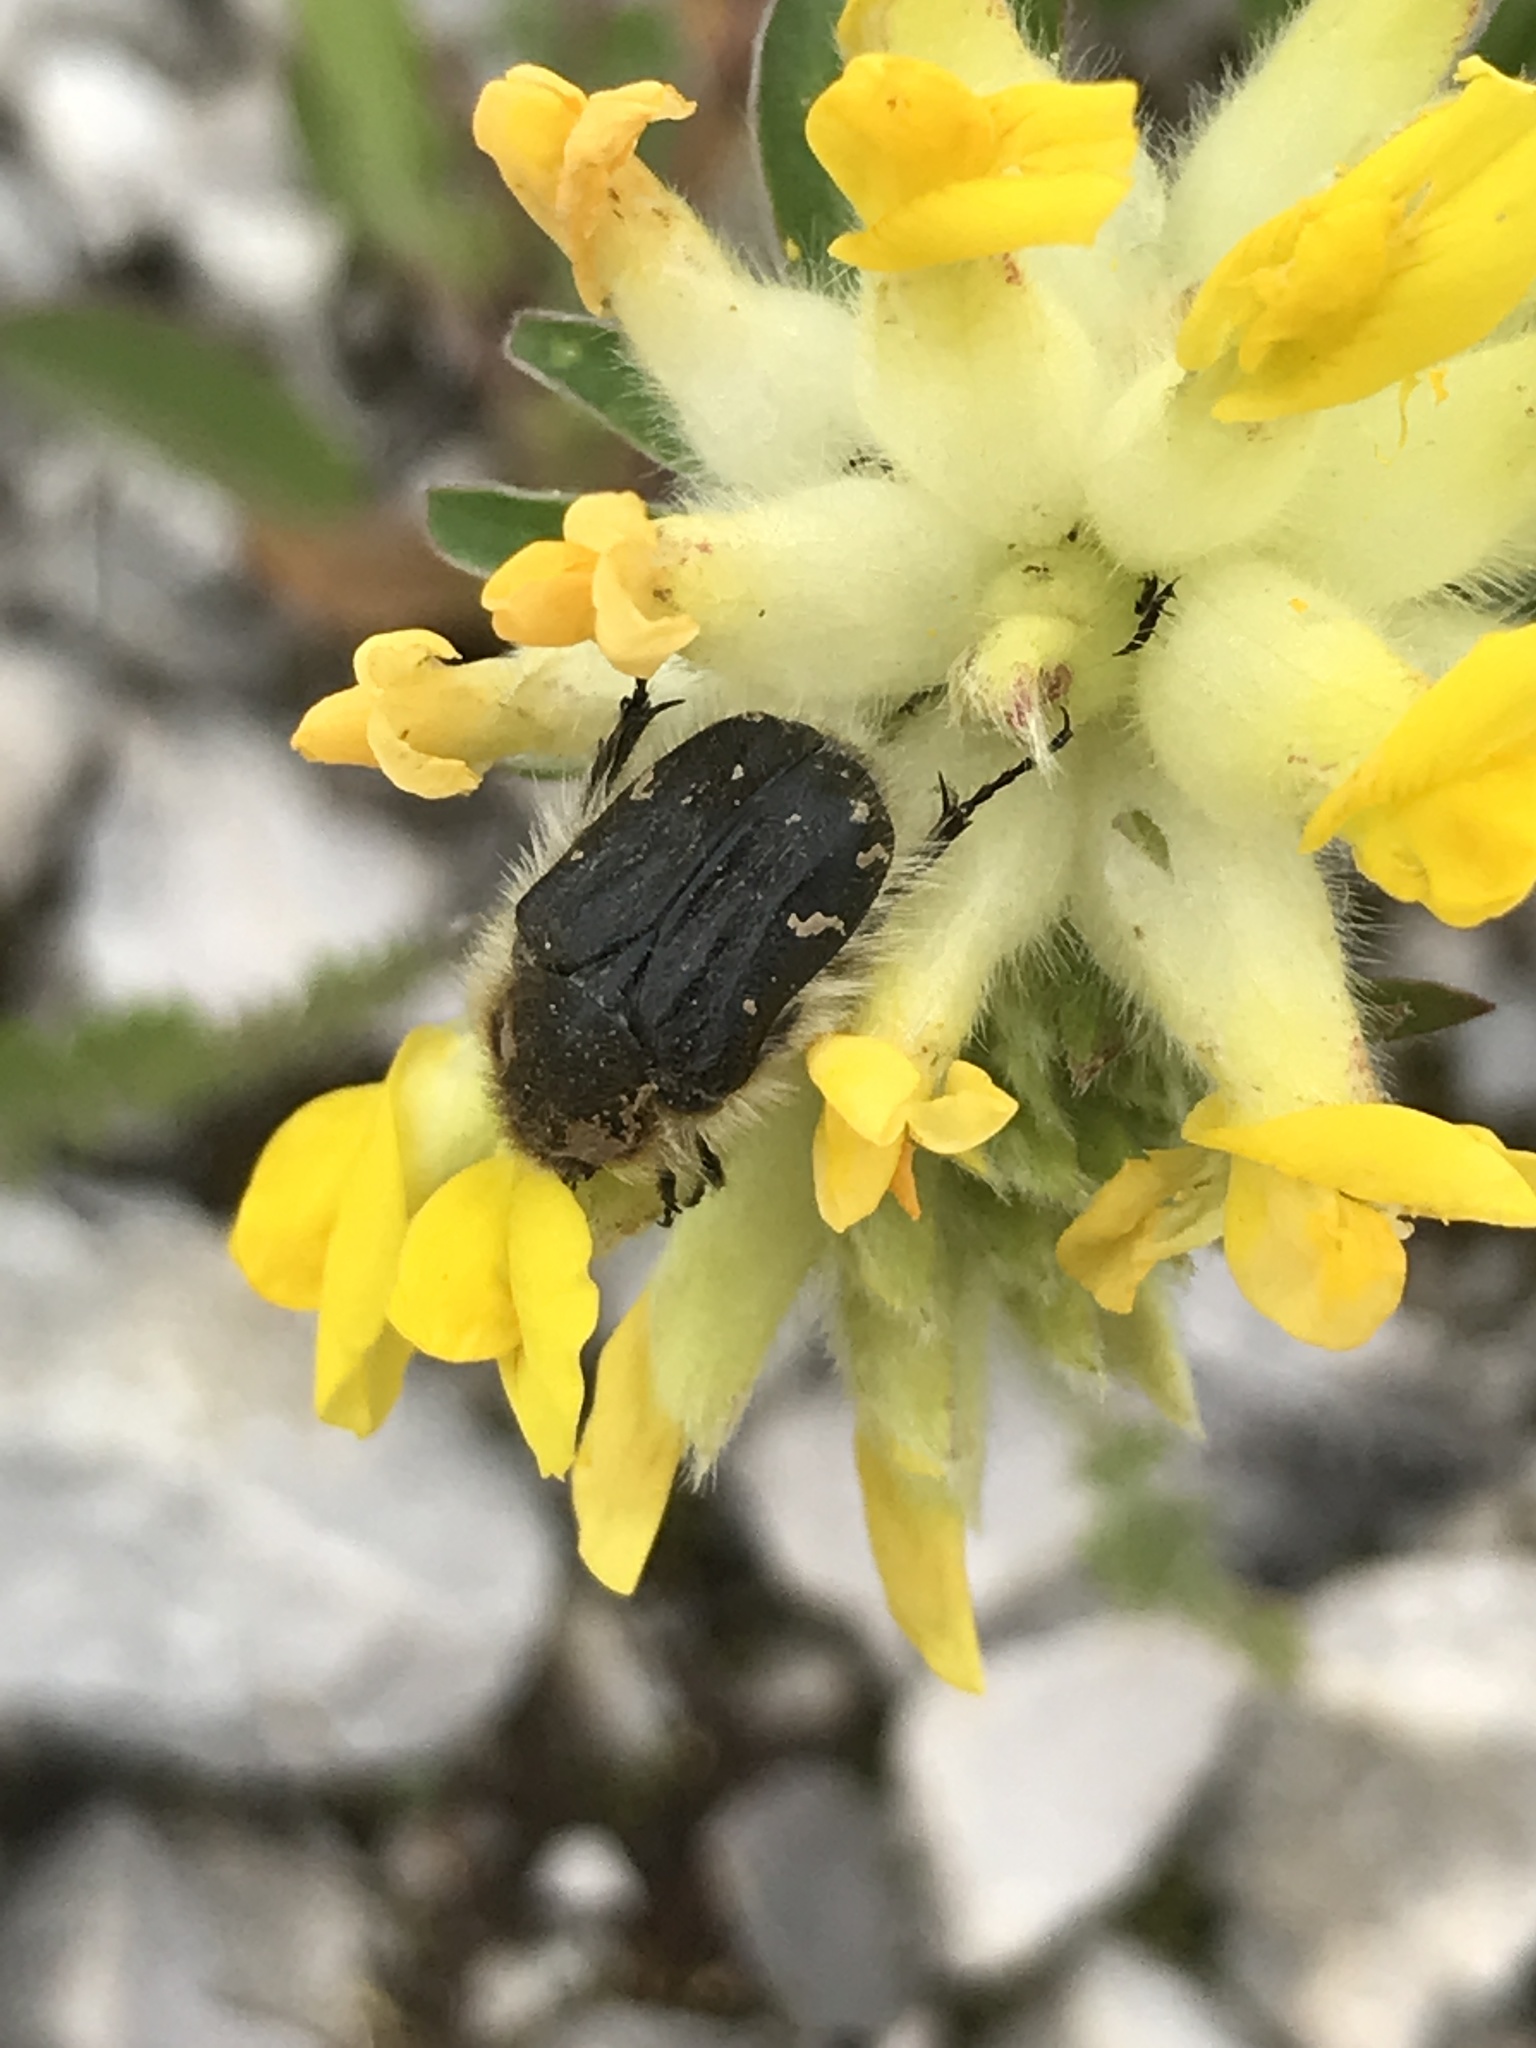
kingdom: Animalia
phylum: Arthropoda
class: Insecta
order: Coleoptera
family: Scarabaeidae
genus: Tropinota
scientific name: Tropinota hirta
